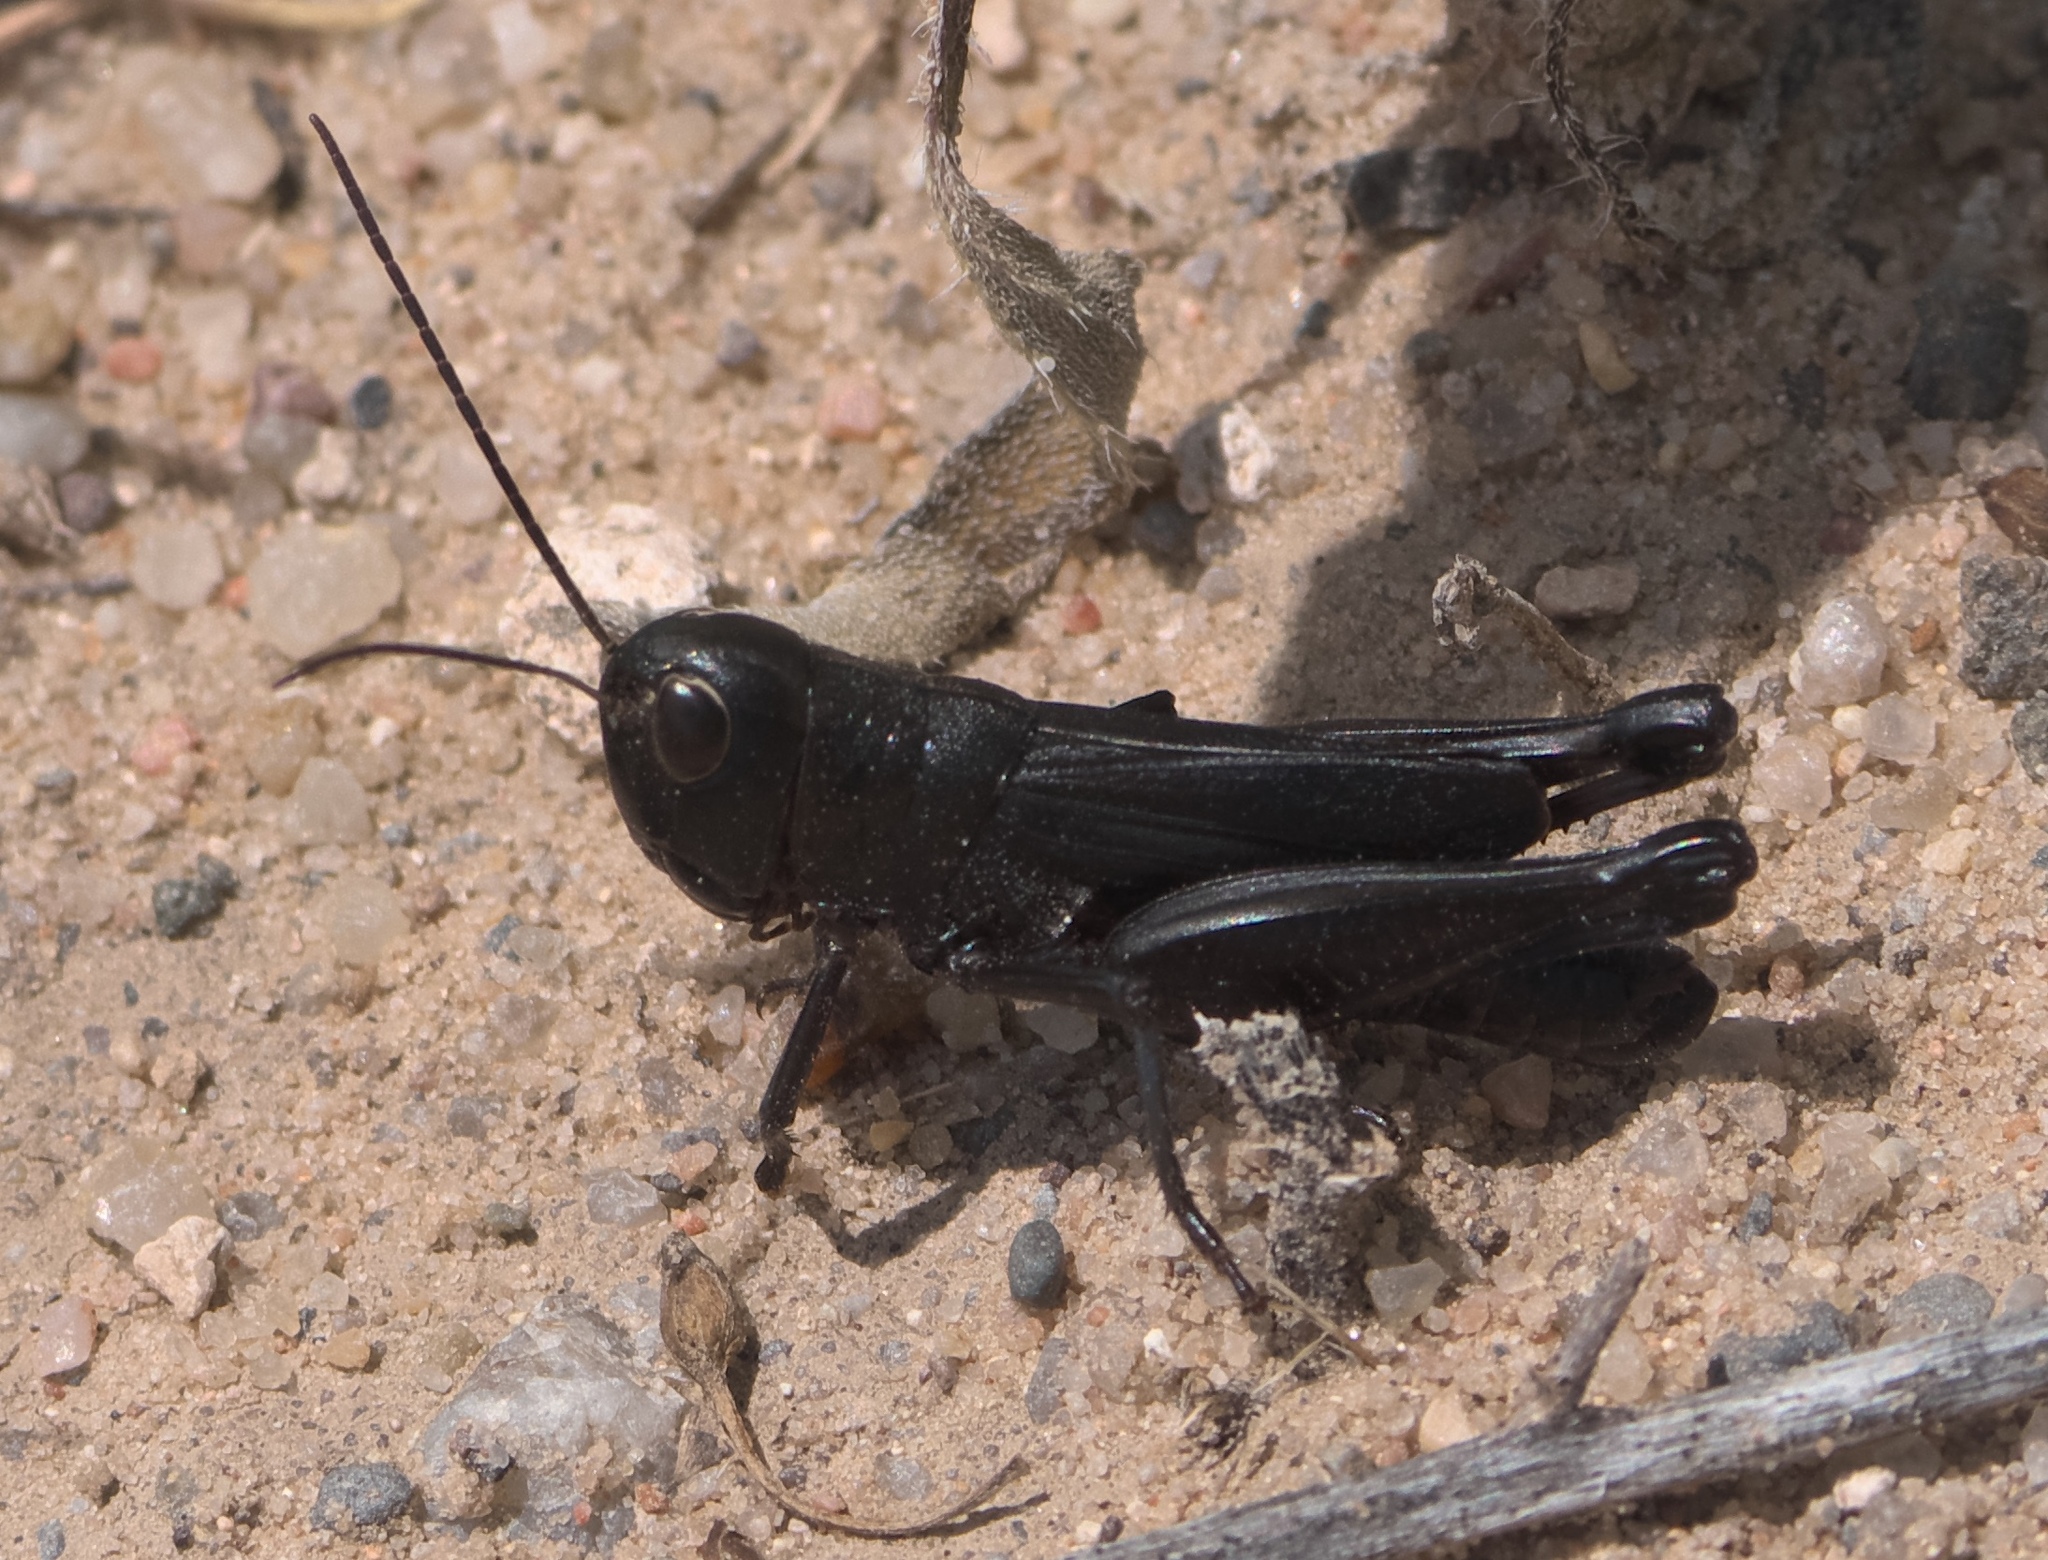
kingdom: Animalia
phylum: Arthropoda
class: Insecta
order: Orthoptera
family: Acrididae
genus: Boopedon
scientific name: Boopedon nubilum
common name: Ebony grasshopper
